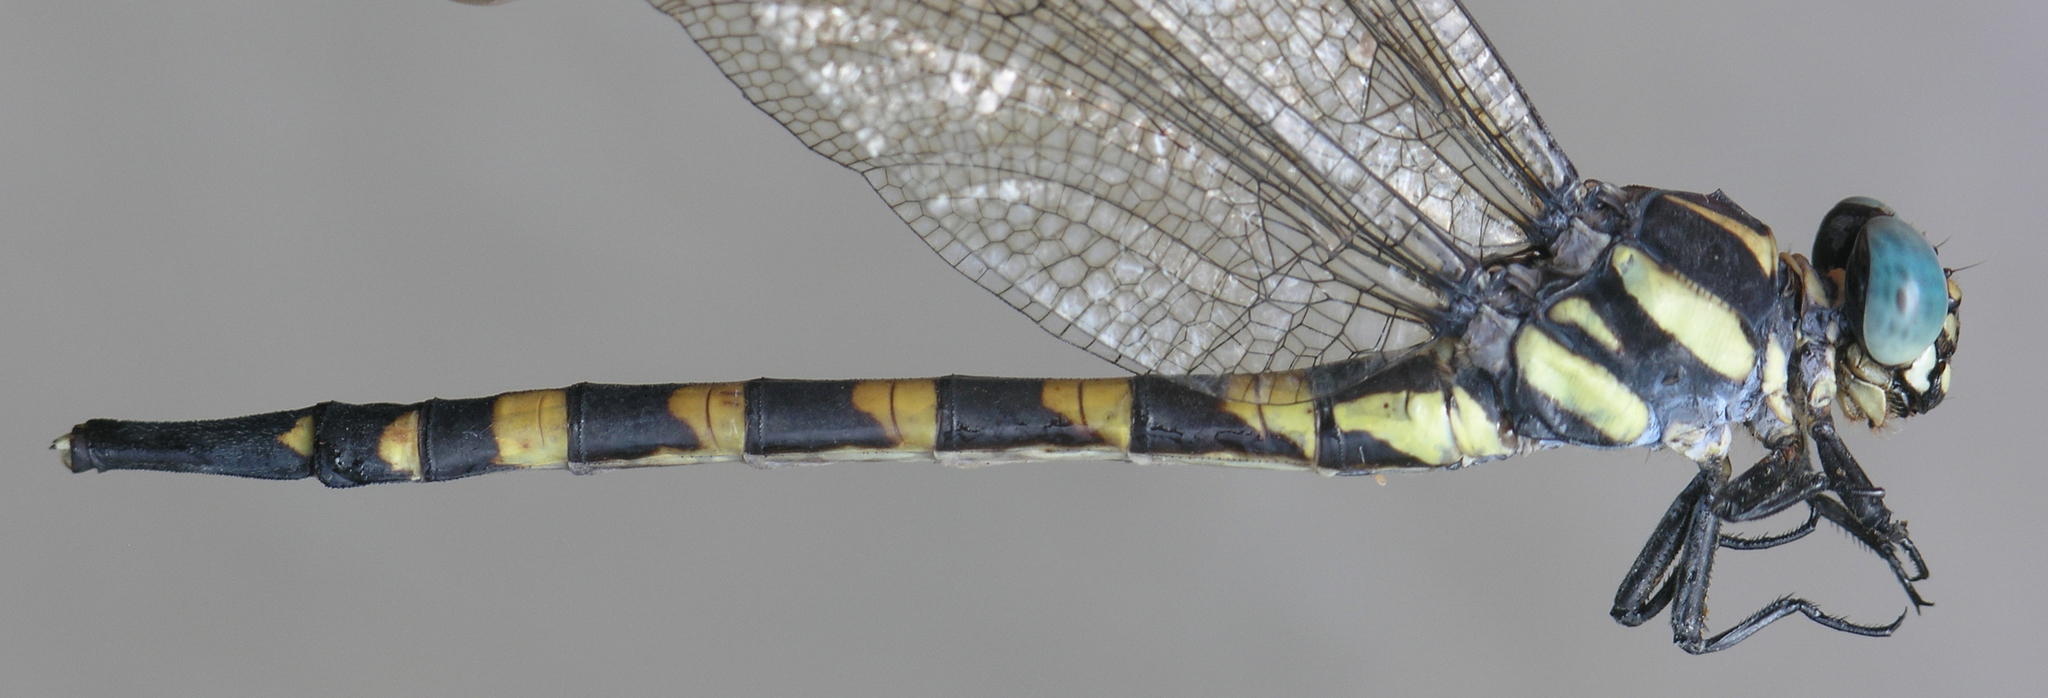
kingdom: Animalia
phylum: Arthropoda
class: Insecta
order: Odonata
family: Gomphidae
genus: Macrogomphus
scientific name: Macrogomphus albardae
